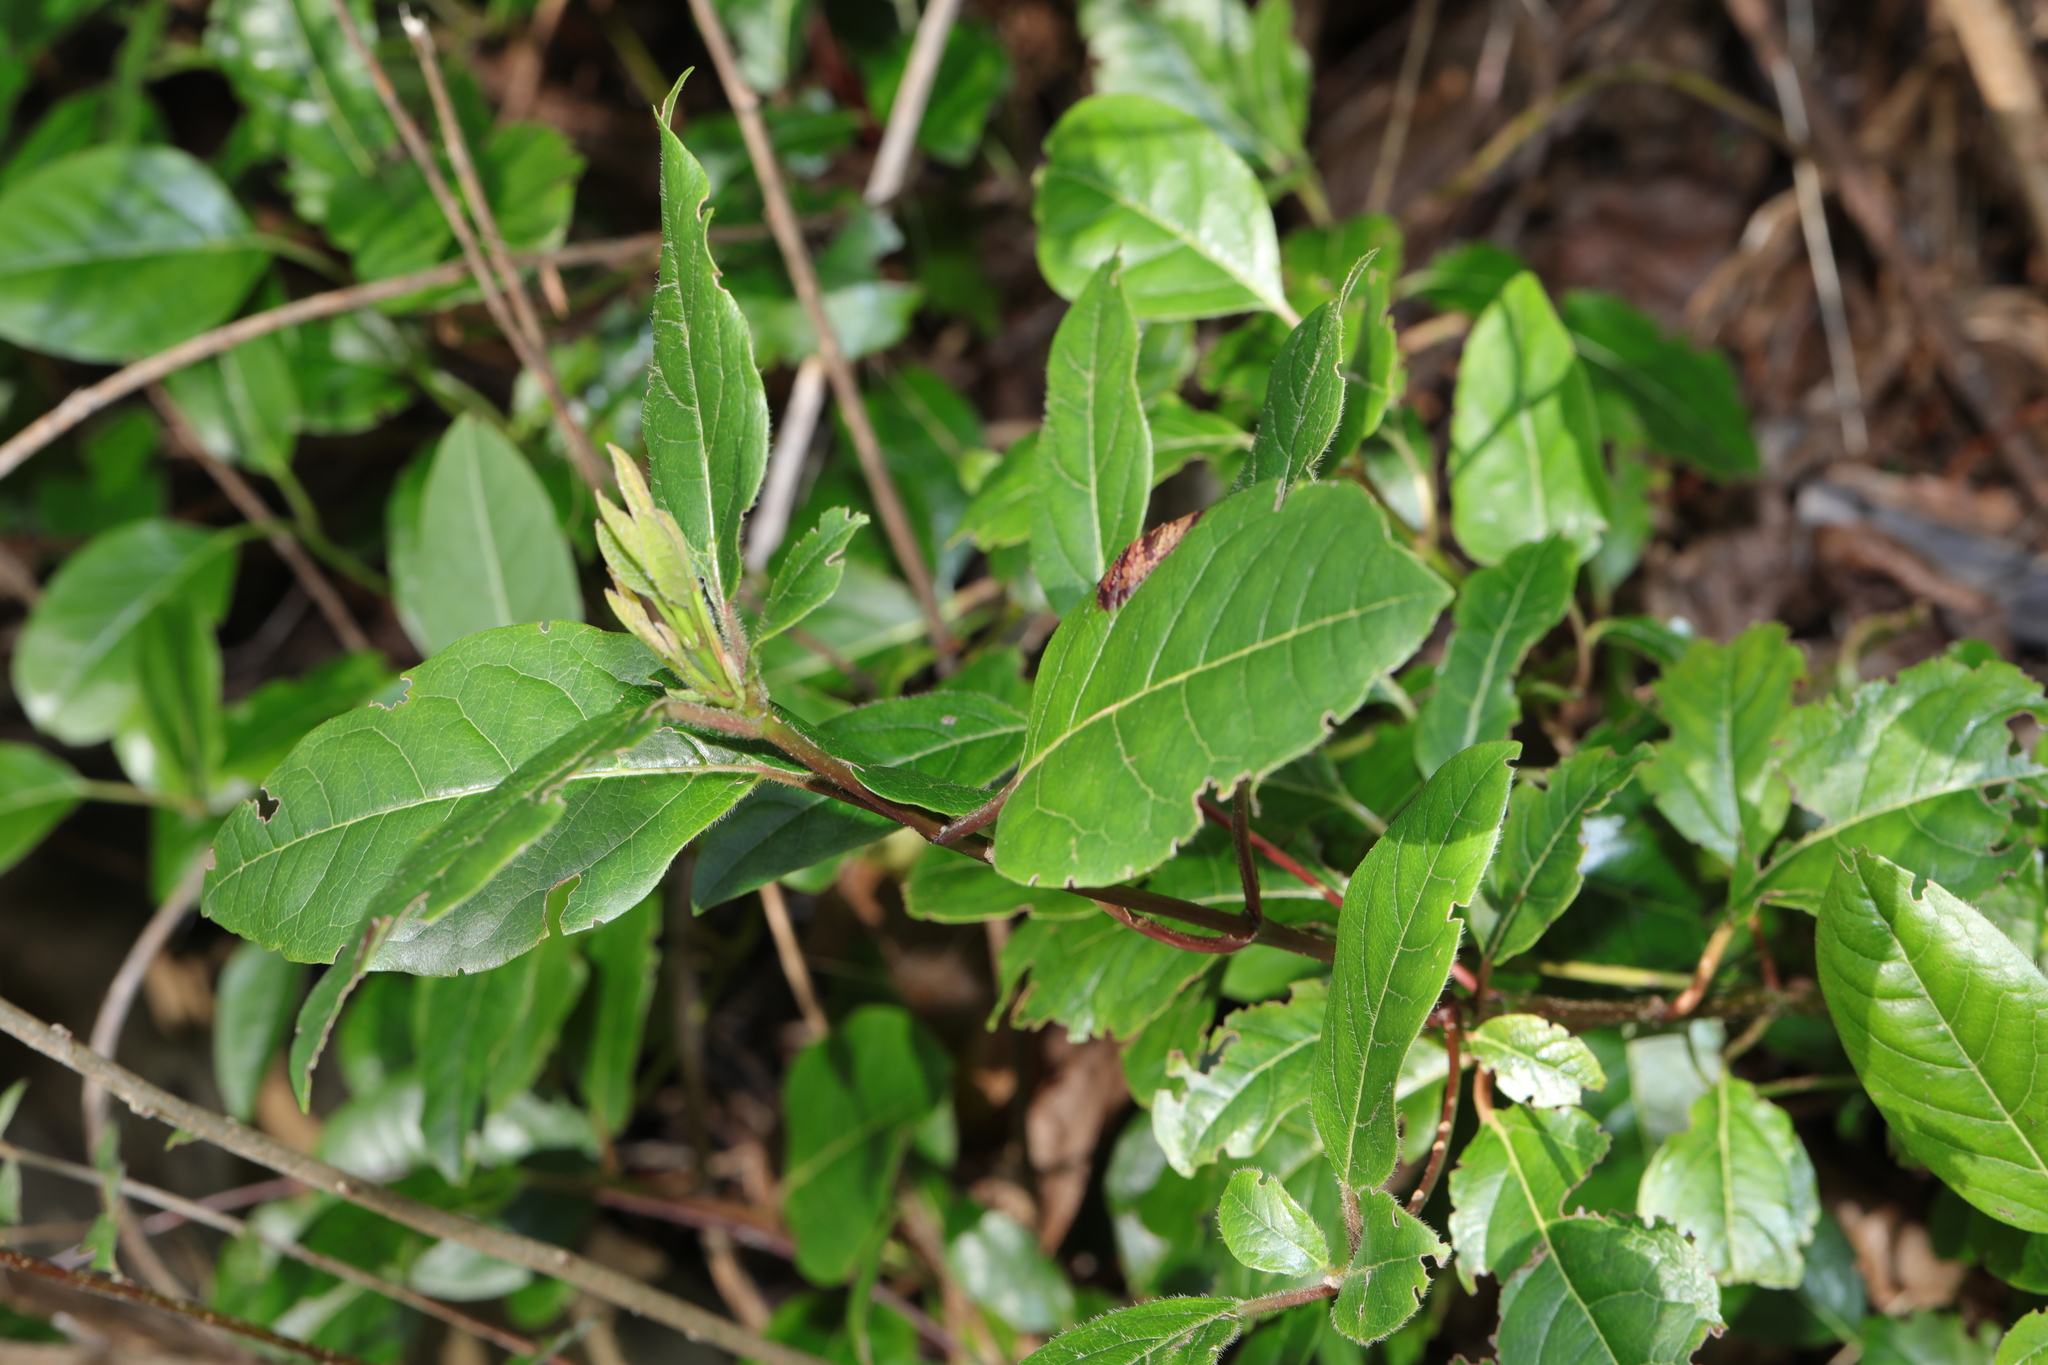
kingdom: Plantae
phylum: Tracheophyta
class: Magnoliopsida
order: Dipsacales
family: Viburnaceae
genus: Viburnum
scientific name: Viburnum tinus
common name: Laurustinus
